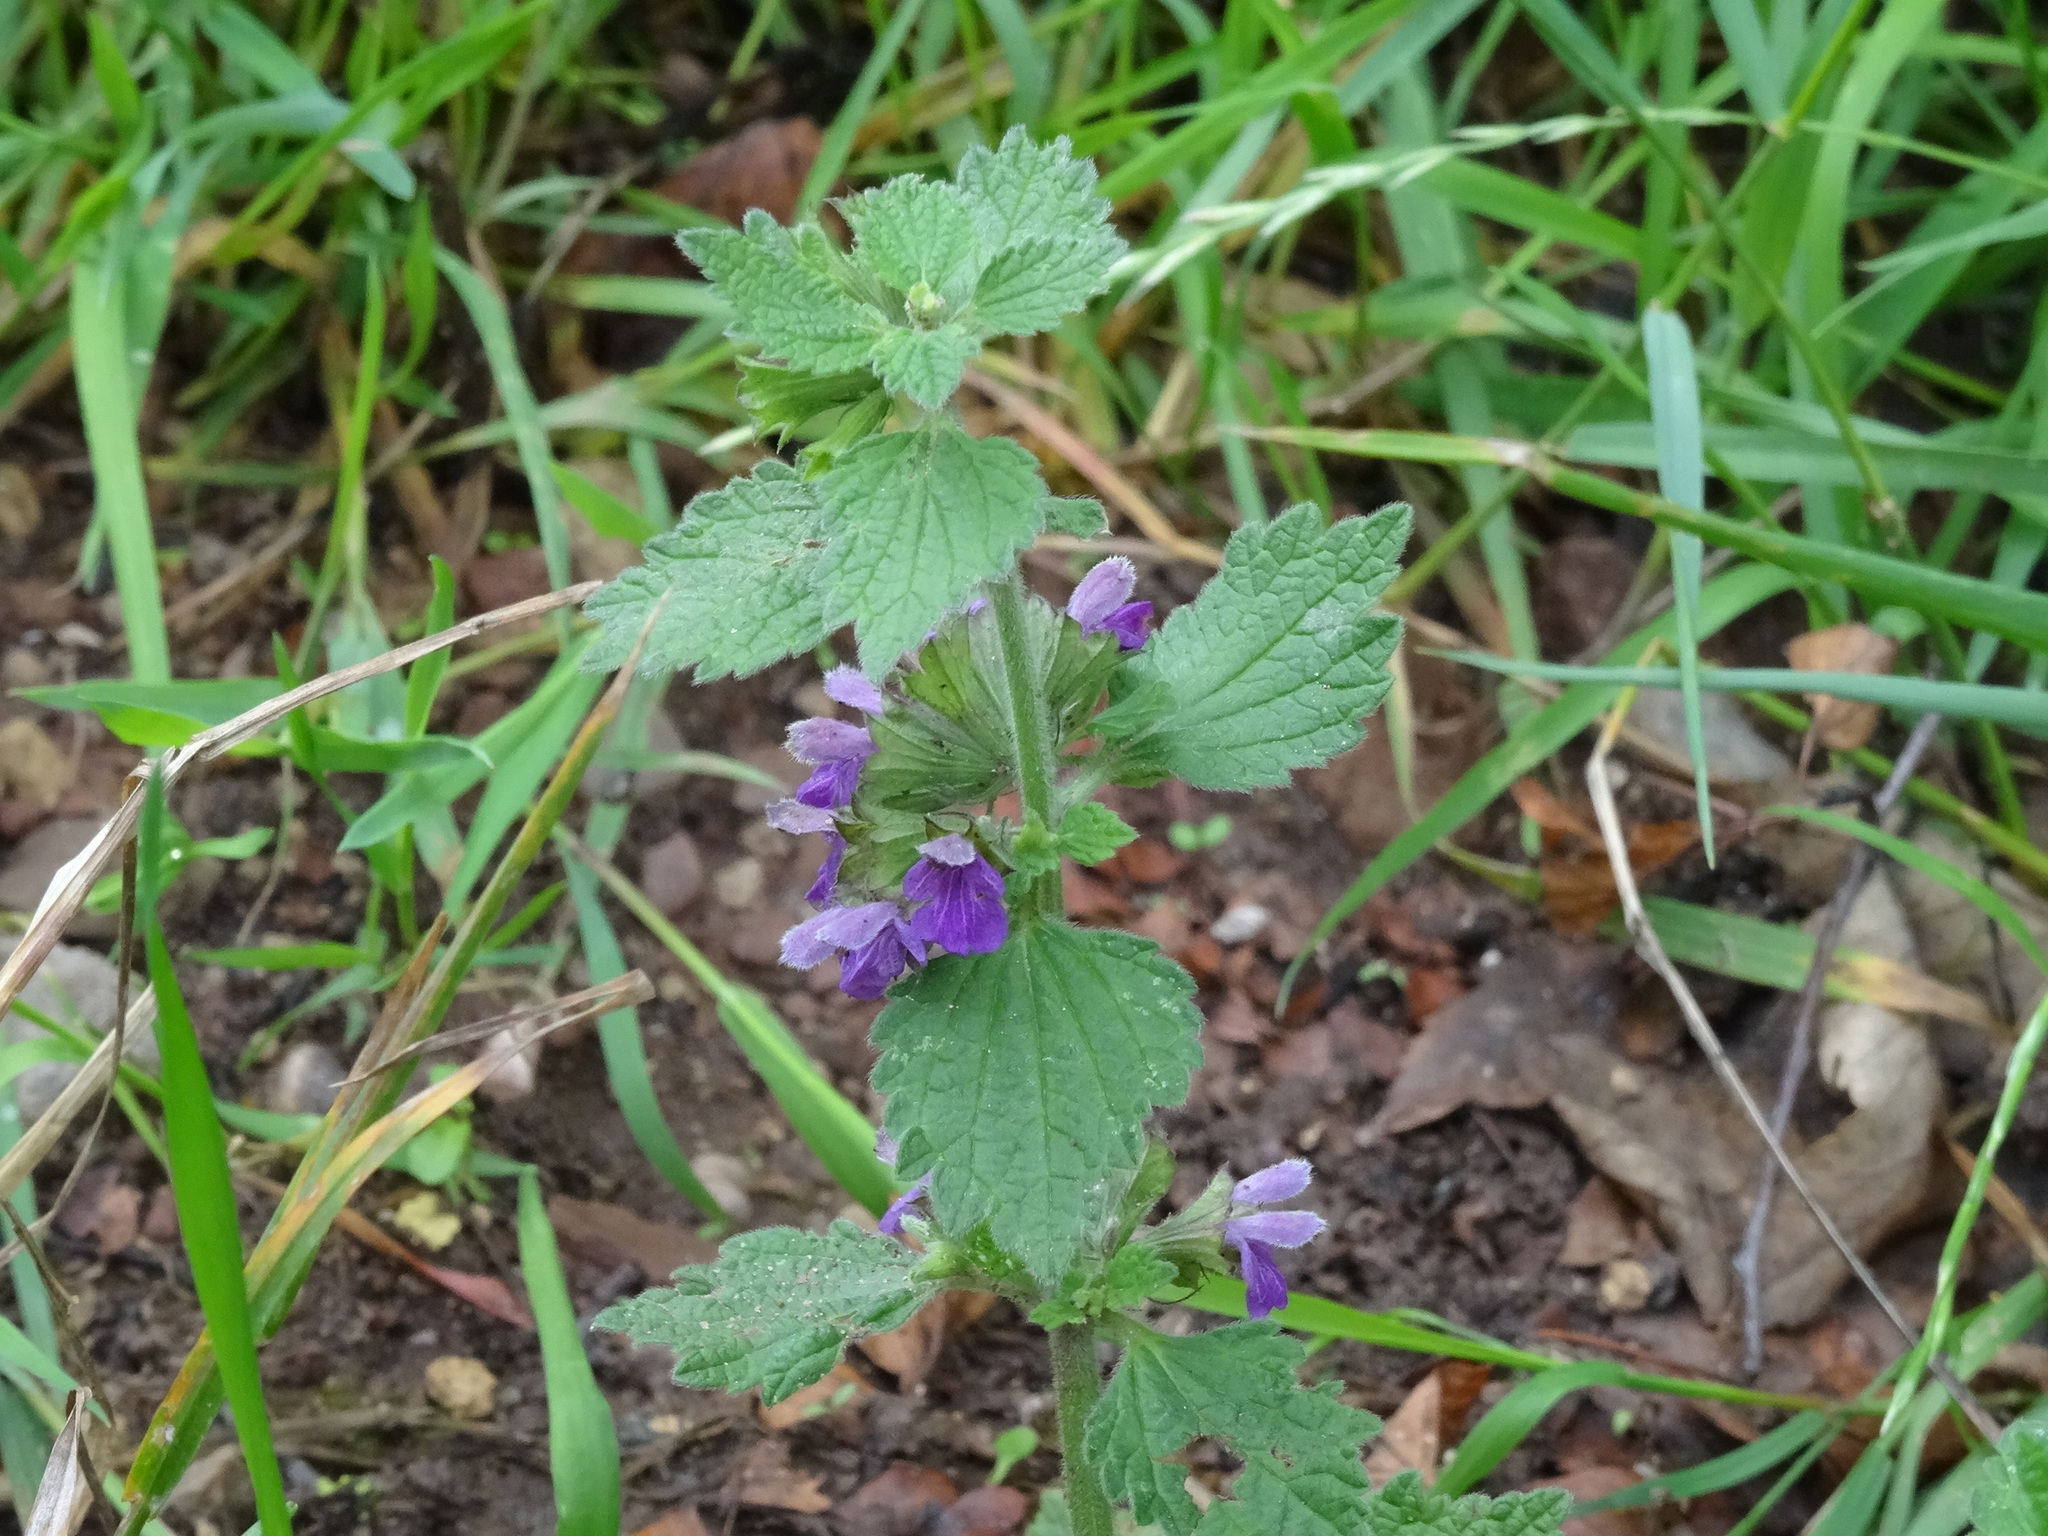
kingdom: Plantae
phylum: Tracheophyta
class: Magnoliopsida
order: Lamiales
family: Lamiaceae
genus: Ballota
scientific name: Ballota nigra
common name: Black horehound
